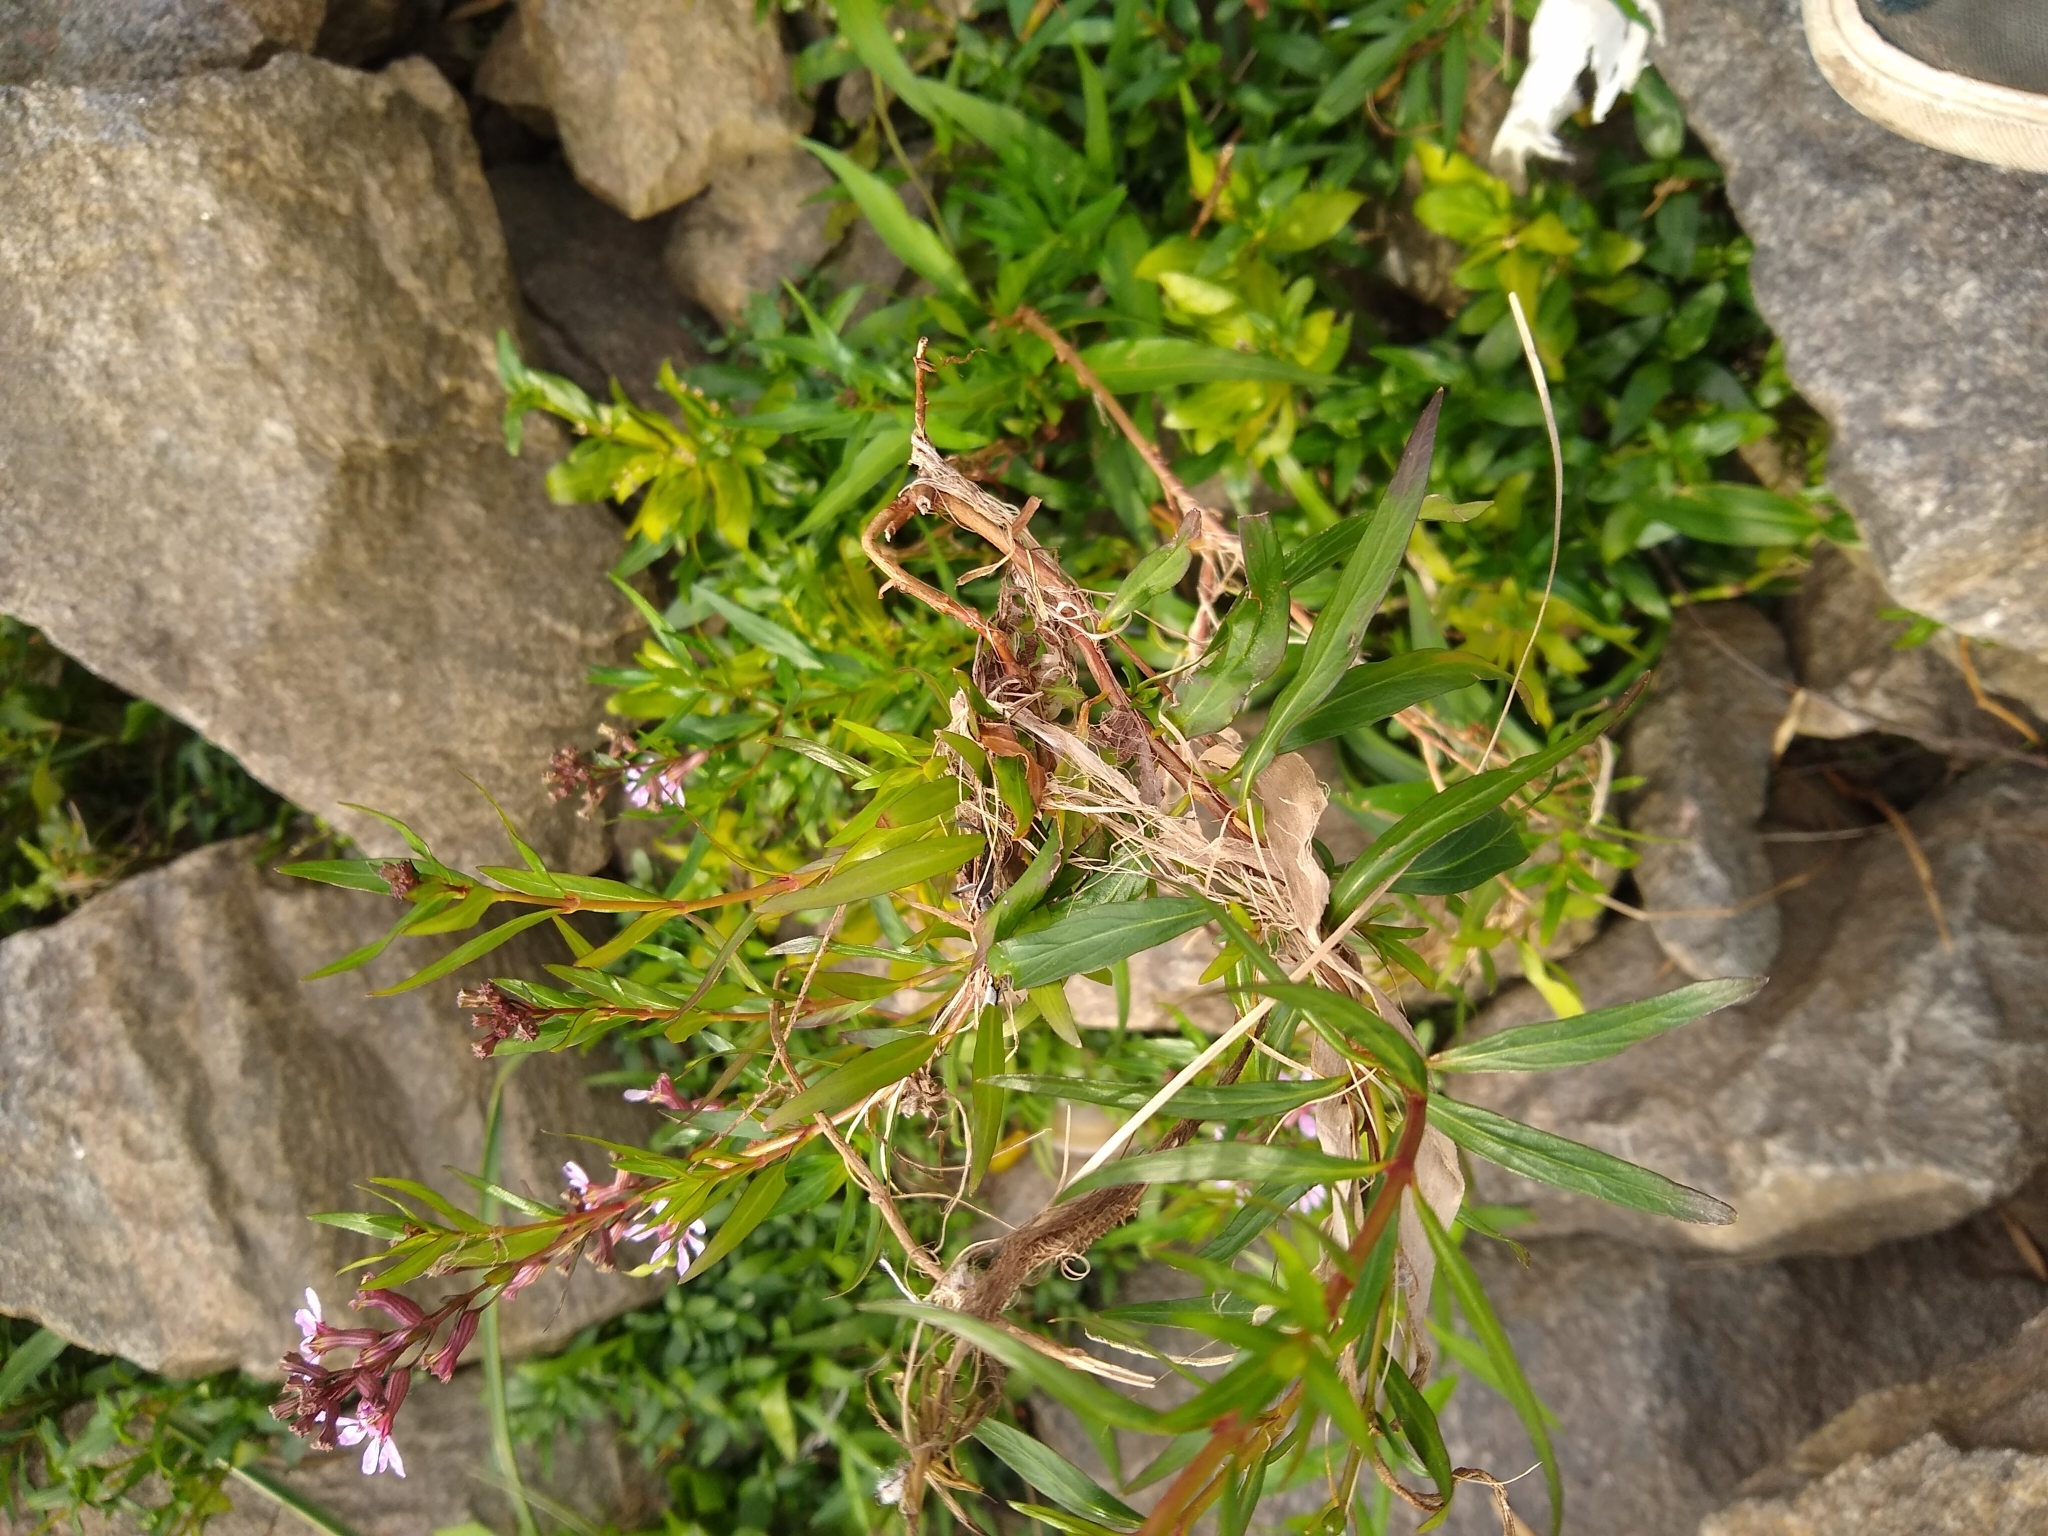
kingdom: Plantae
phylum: Tracheophyta
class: Magnoliopsida
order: Myrtales
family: Lythraceae
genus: Cuphea
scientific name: Cuphea fruticosa
